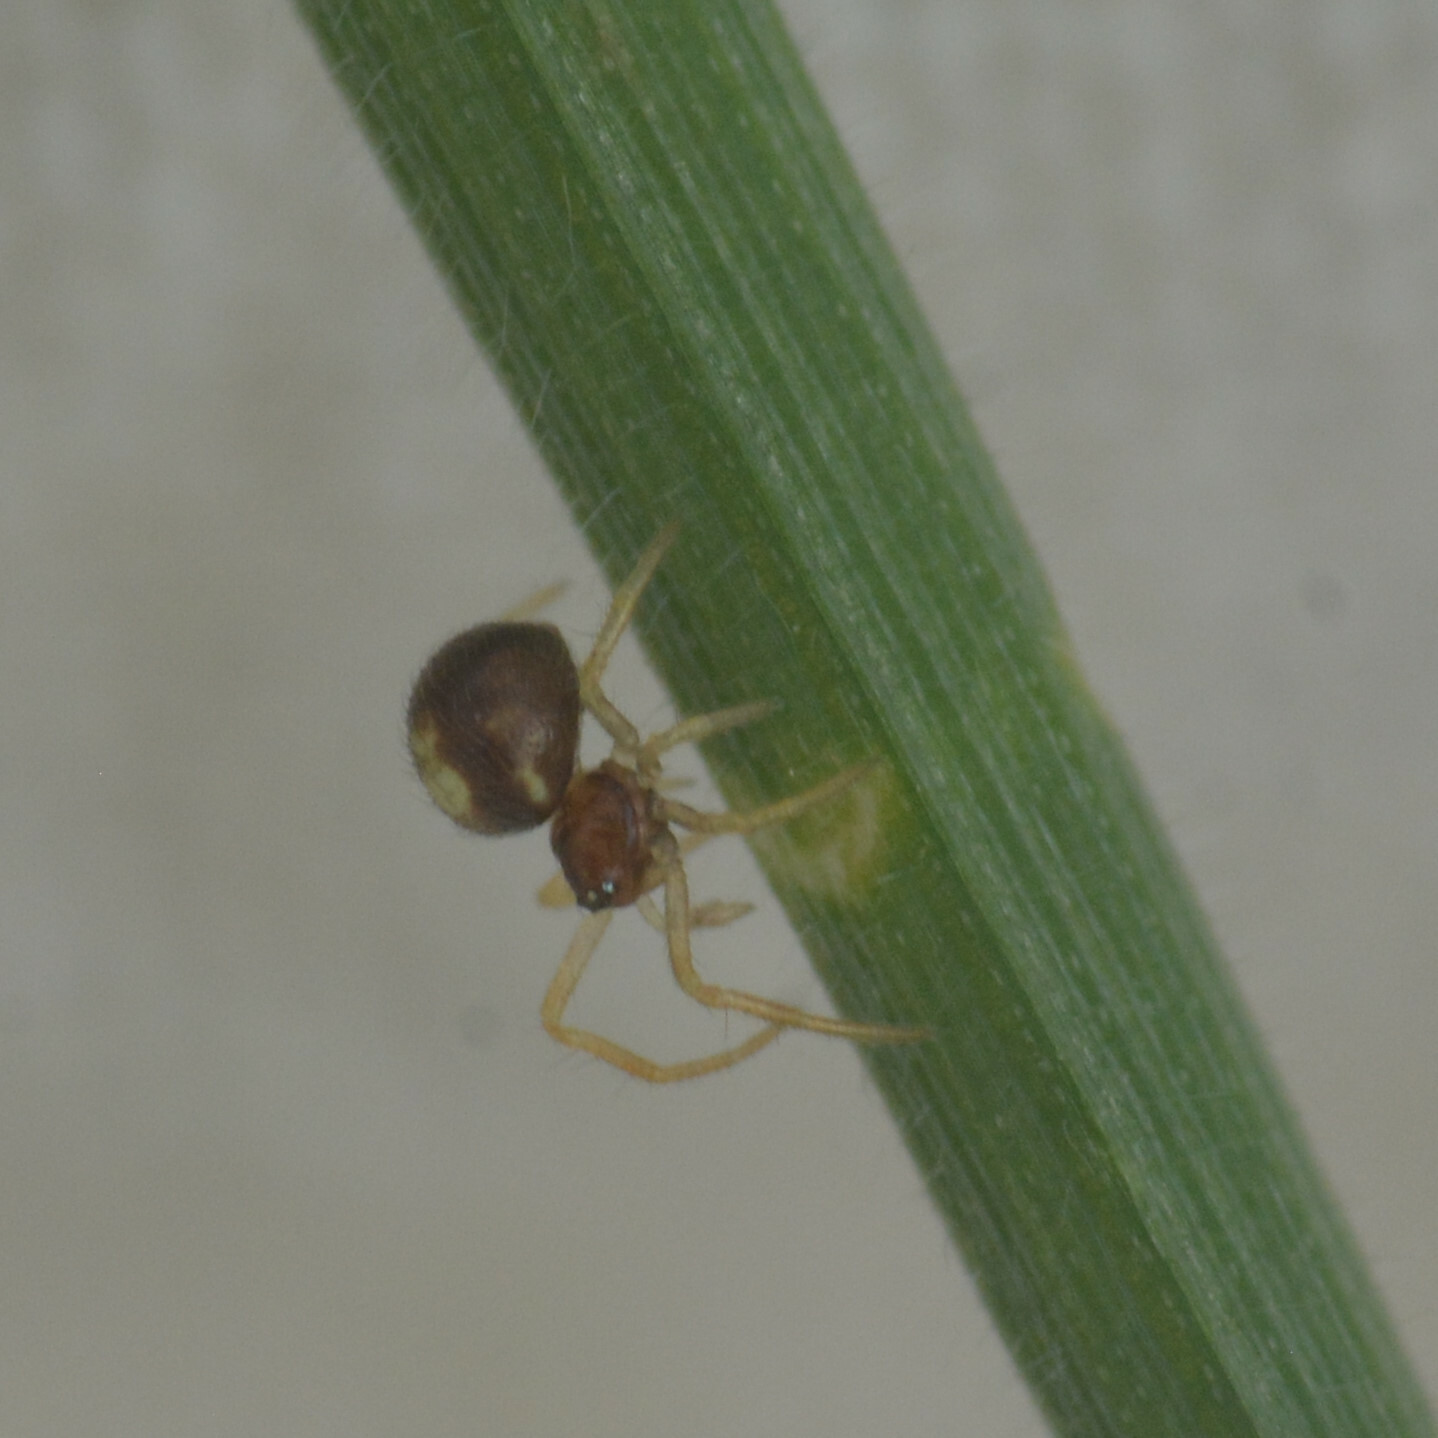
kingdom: Animalia
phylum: Arthropoda
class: Arachnida
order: Araneae
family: Theridiidae
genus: Neottiura
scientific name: Neottiura bimaculata
